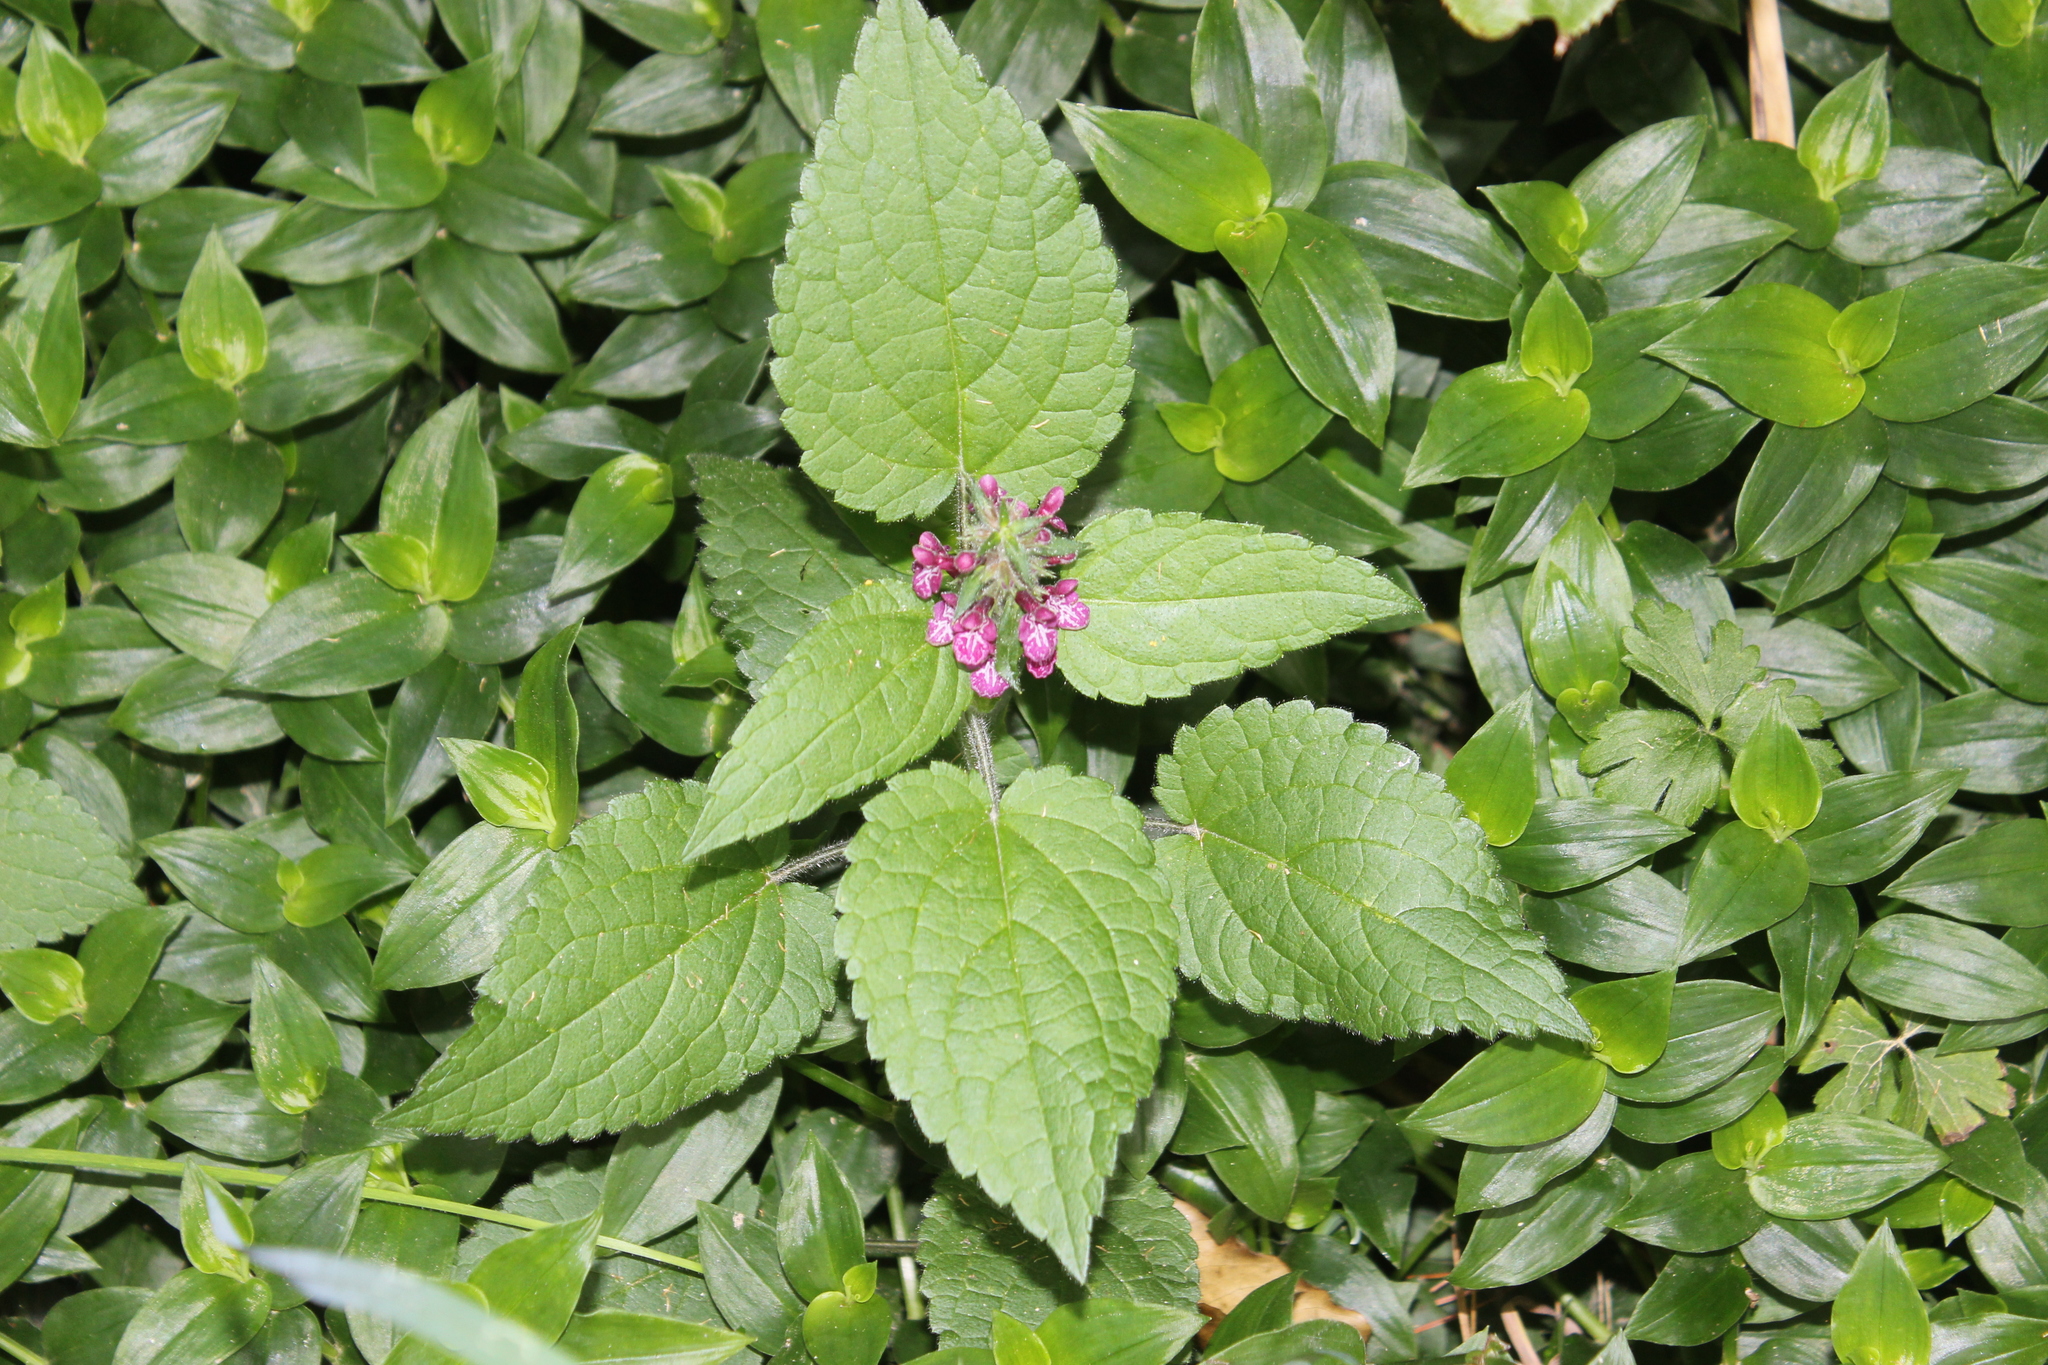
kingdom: Plantae
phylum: Tracheophyta
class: Liliopsida
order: Commelinales
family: Commelinaceae
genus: Tradescantia
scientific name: Tradescantia fluminensis
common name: Wandering-jew
